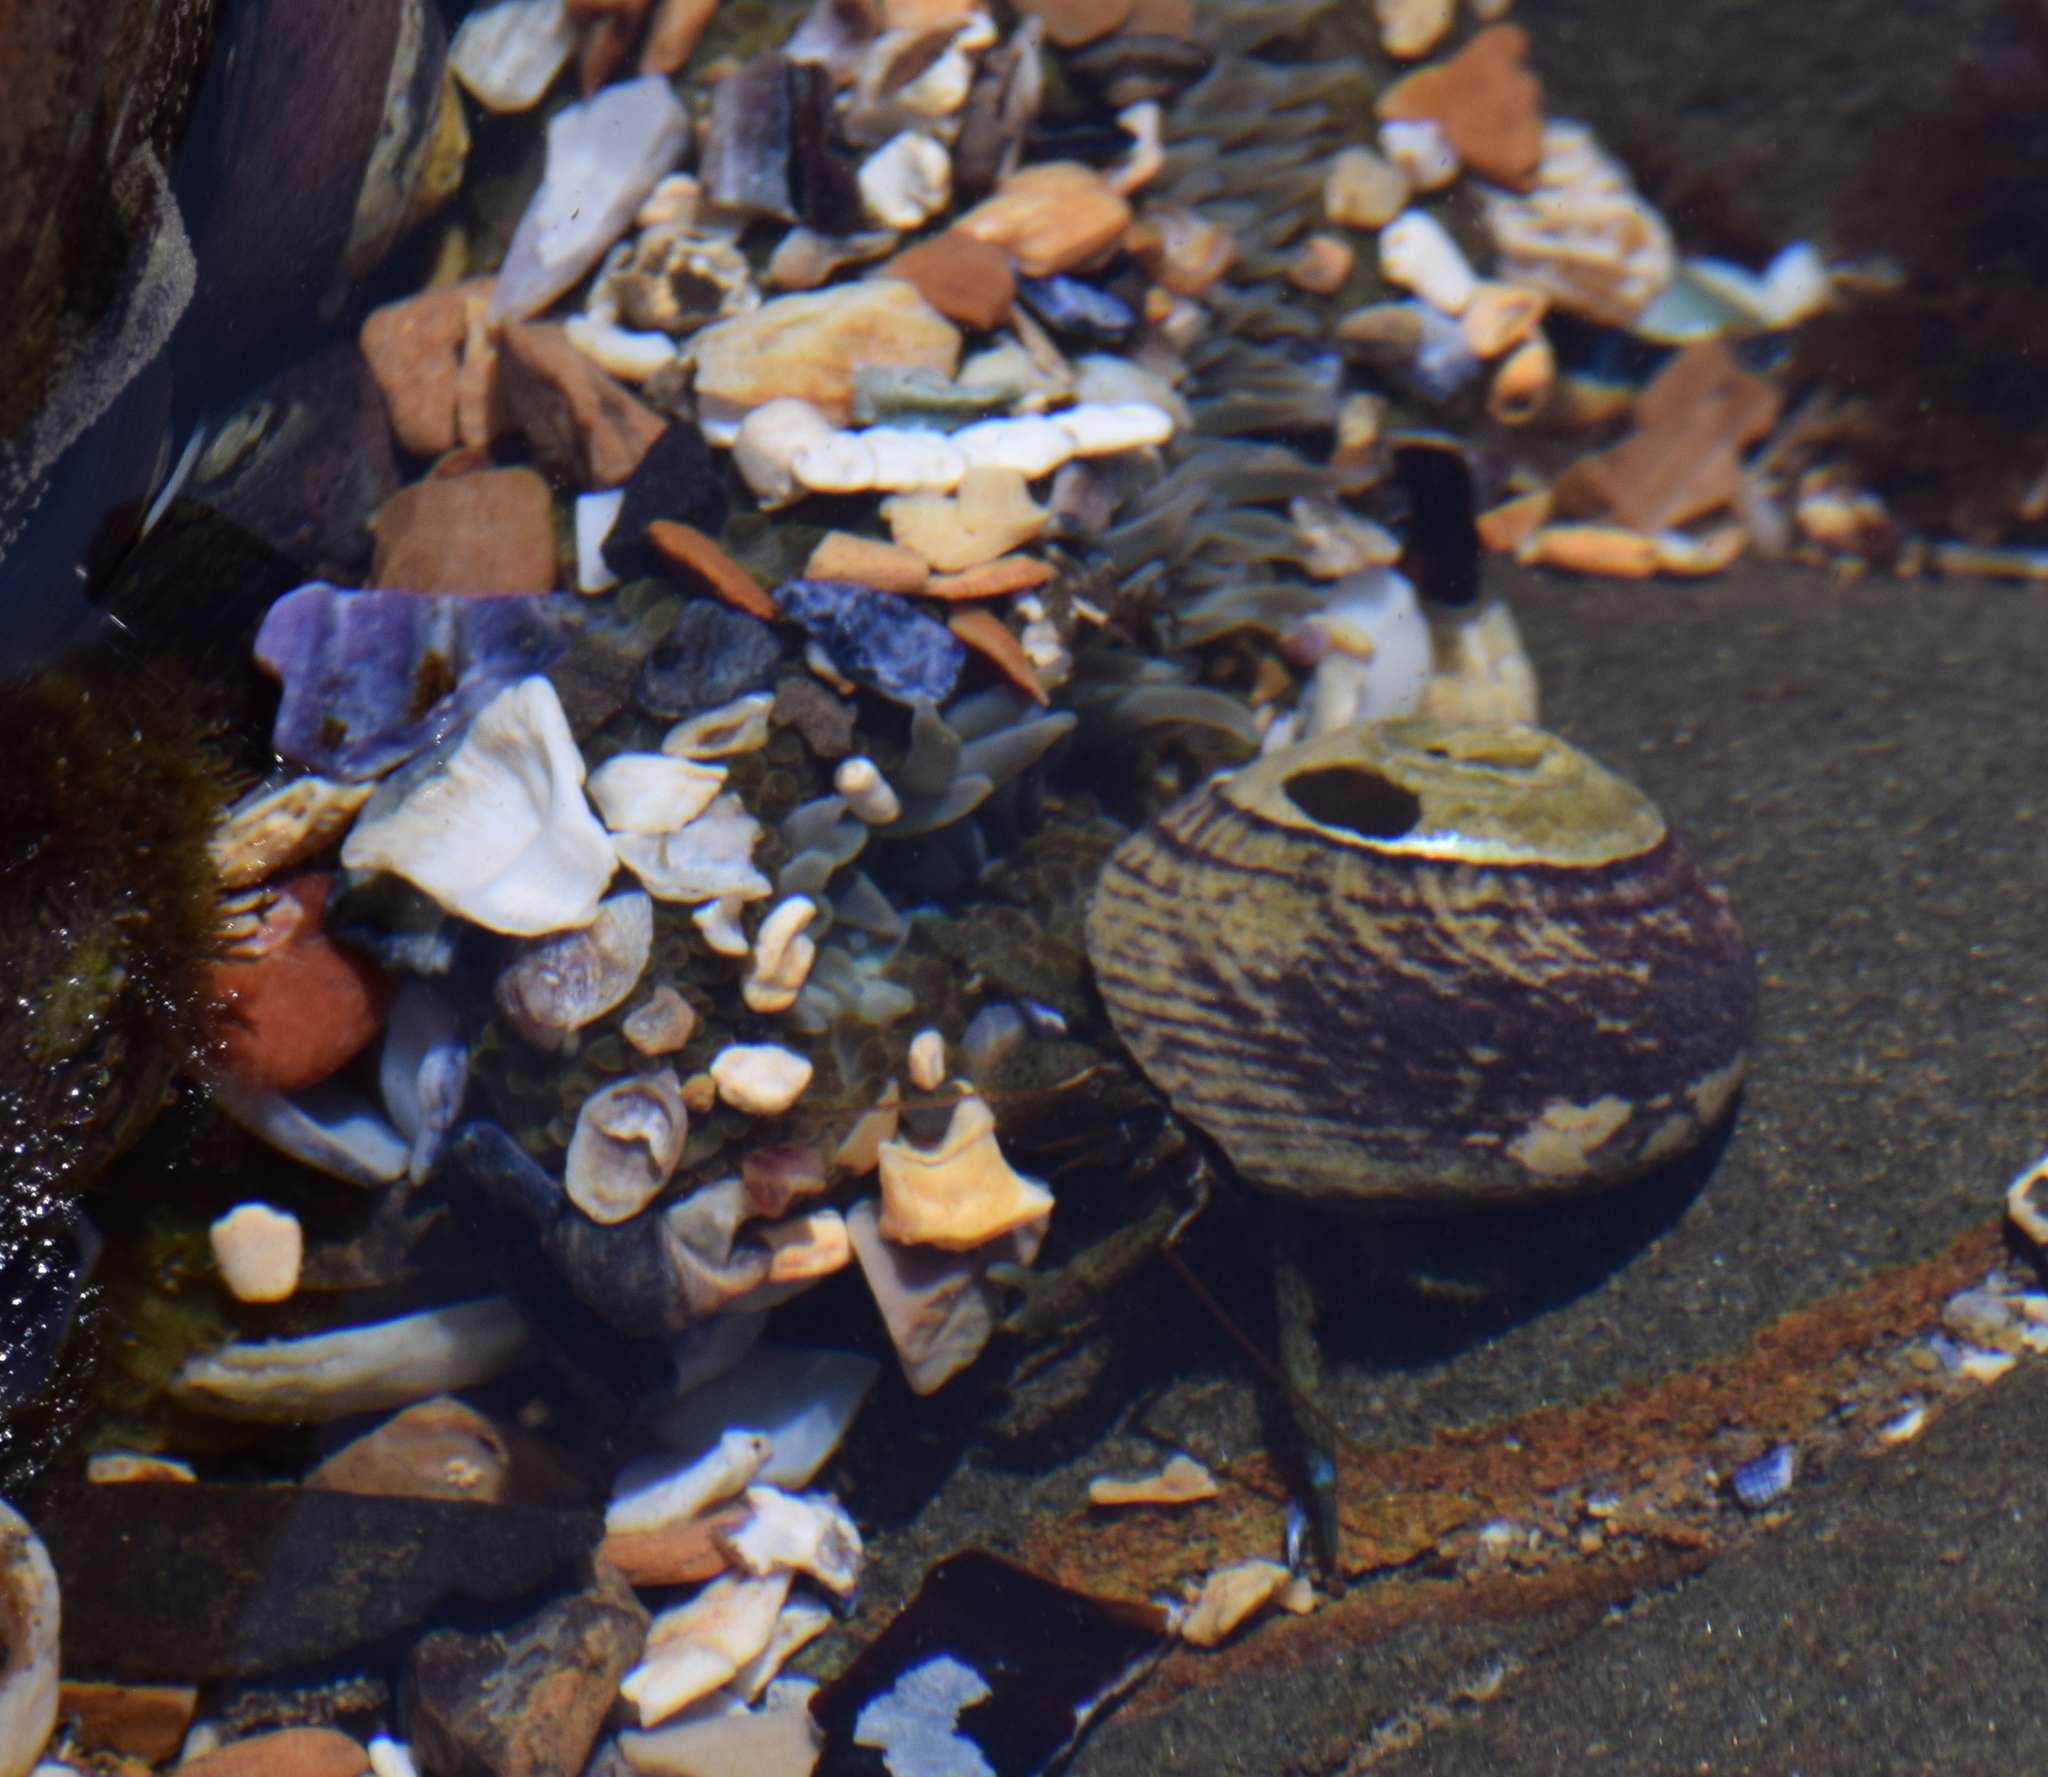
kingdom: Animalia
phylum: Arthropoda
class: Malacostraca
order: Decapoda
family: Paguridae
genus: Pagurus
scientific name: Pagurus samuelis
